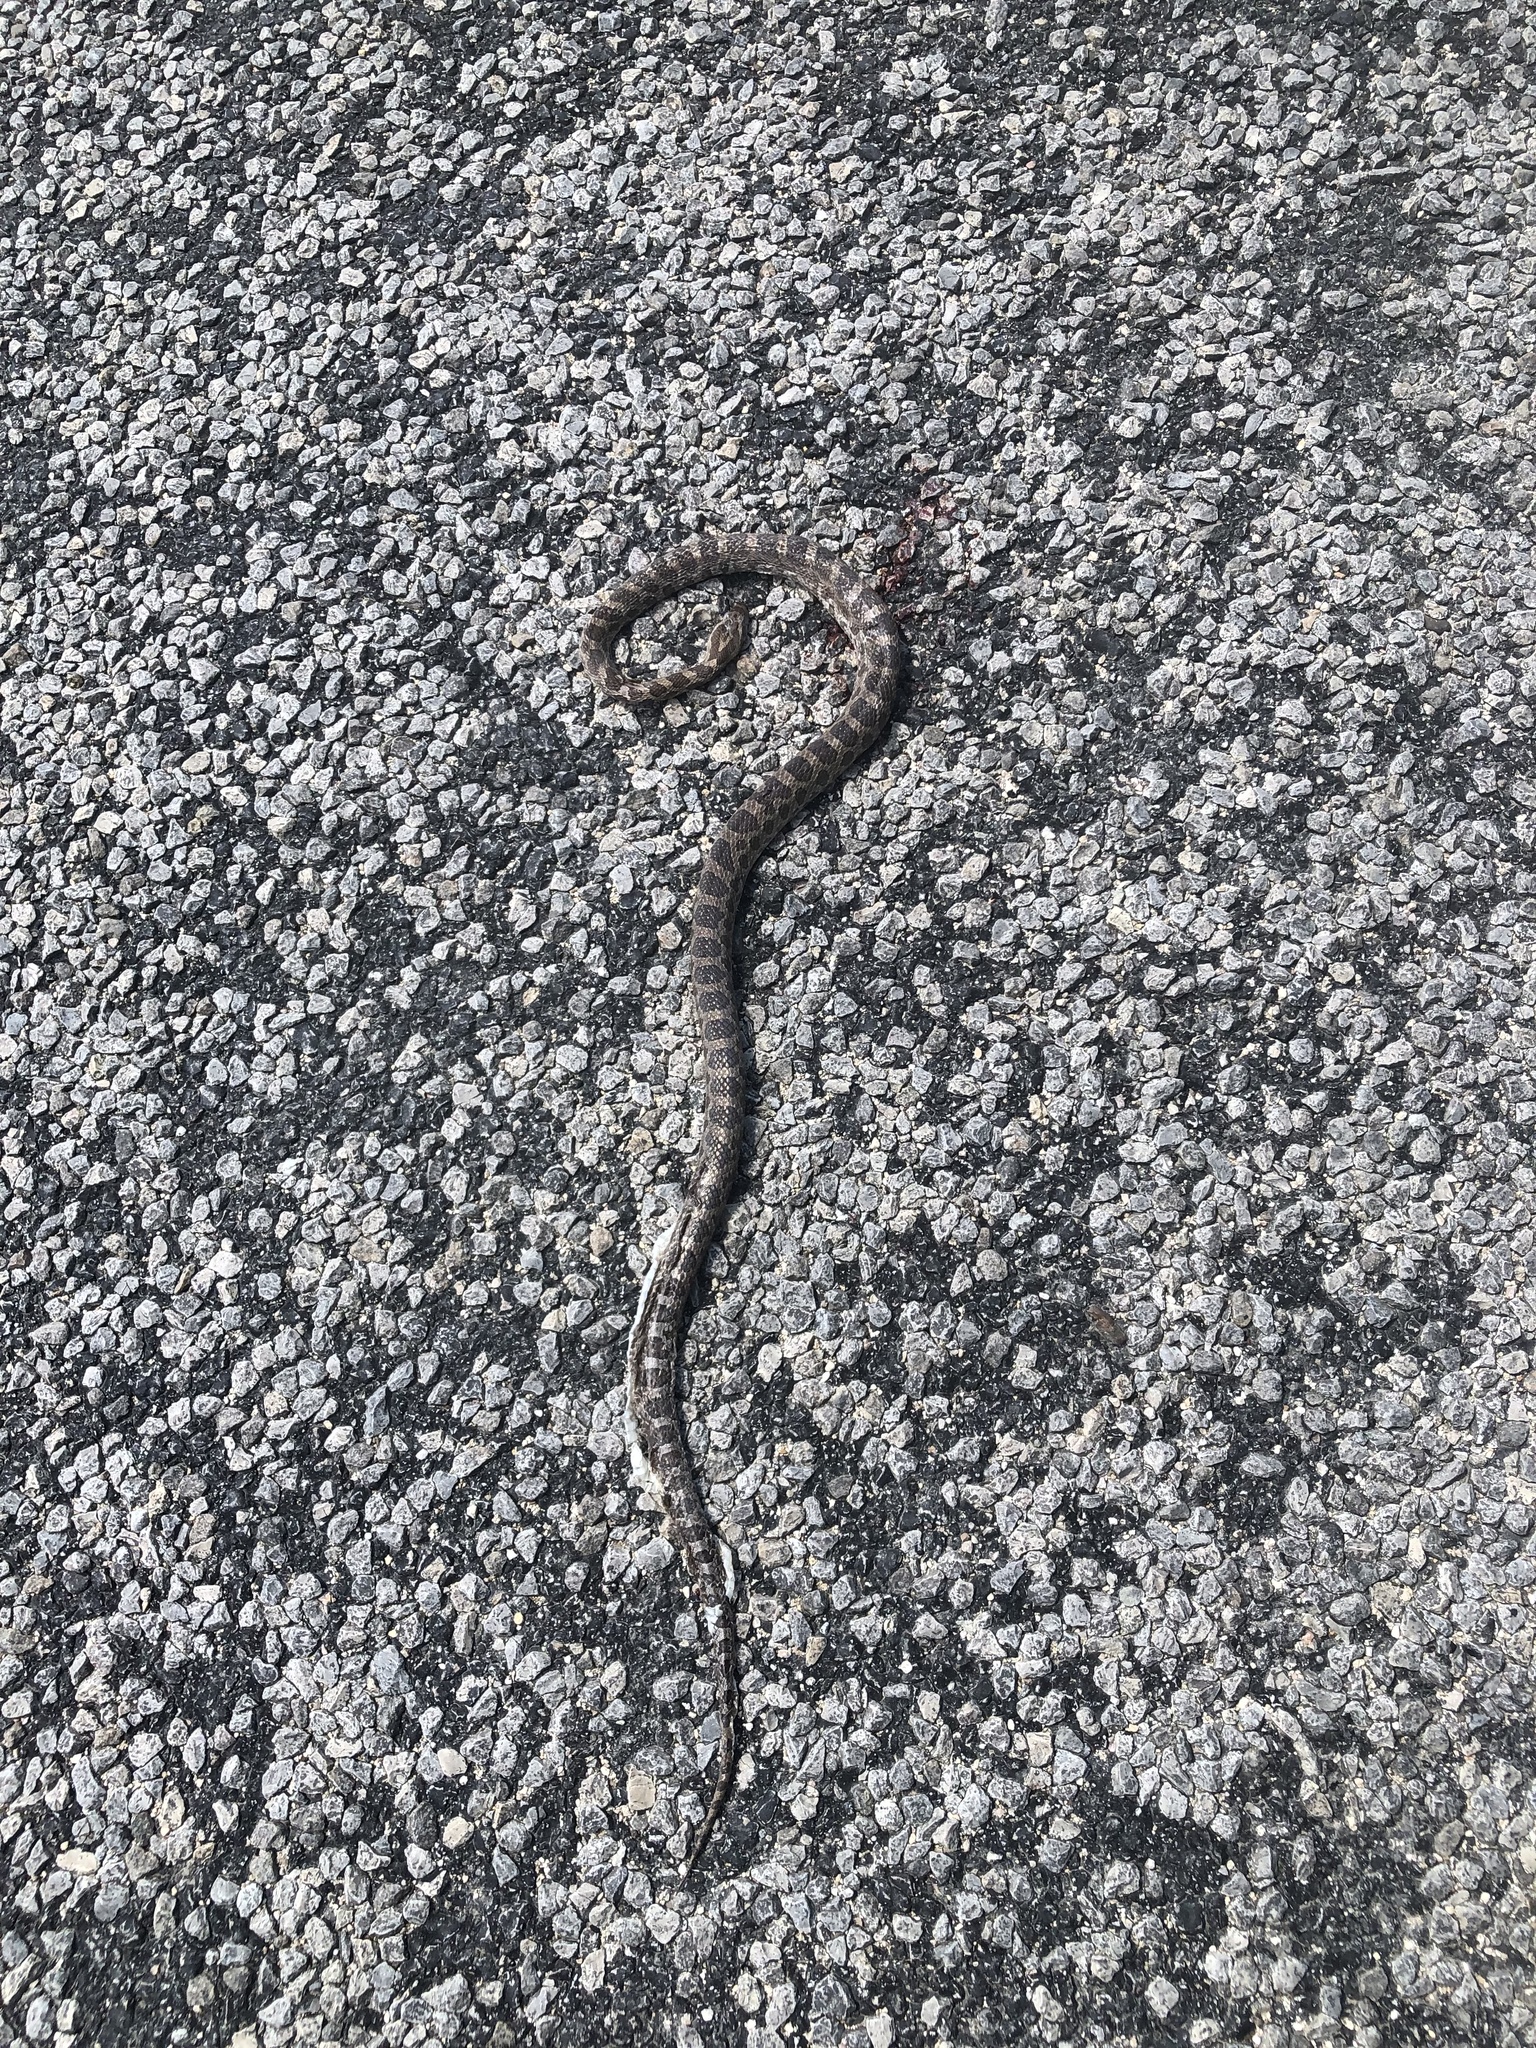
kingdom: Animalia
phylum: Chordata
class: Squamata
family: Colubridae
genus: Pantherophis
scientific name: Pantherophis emoryi
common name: Great plains rat snake
